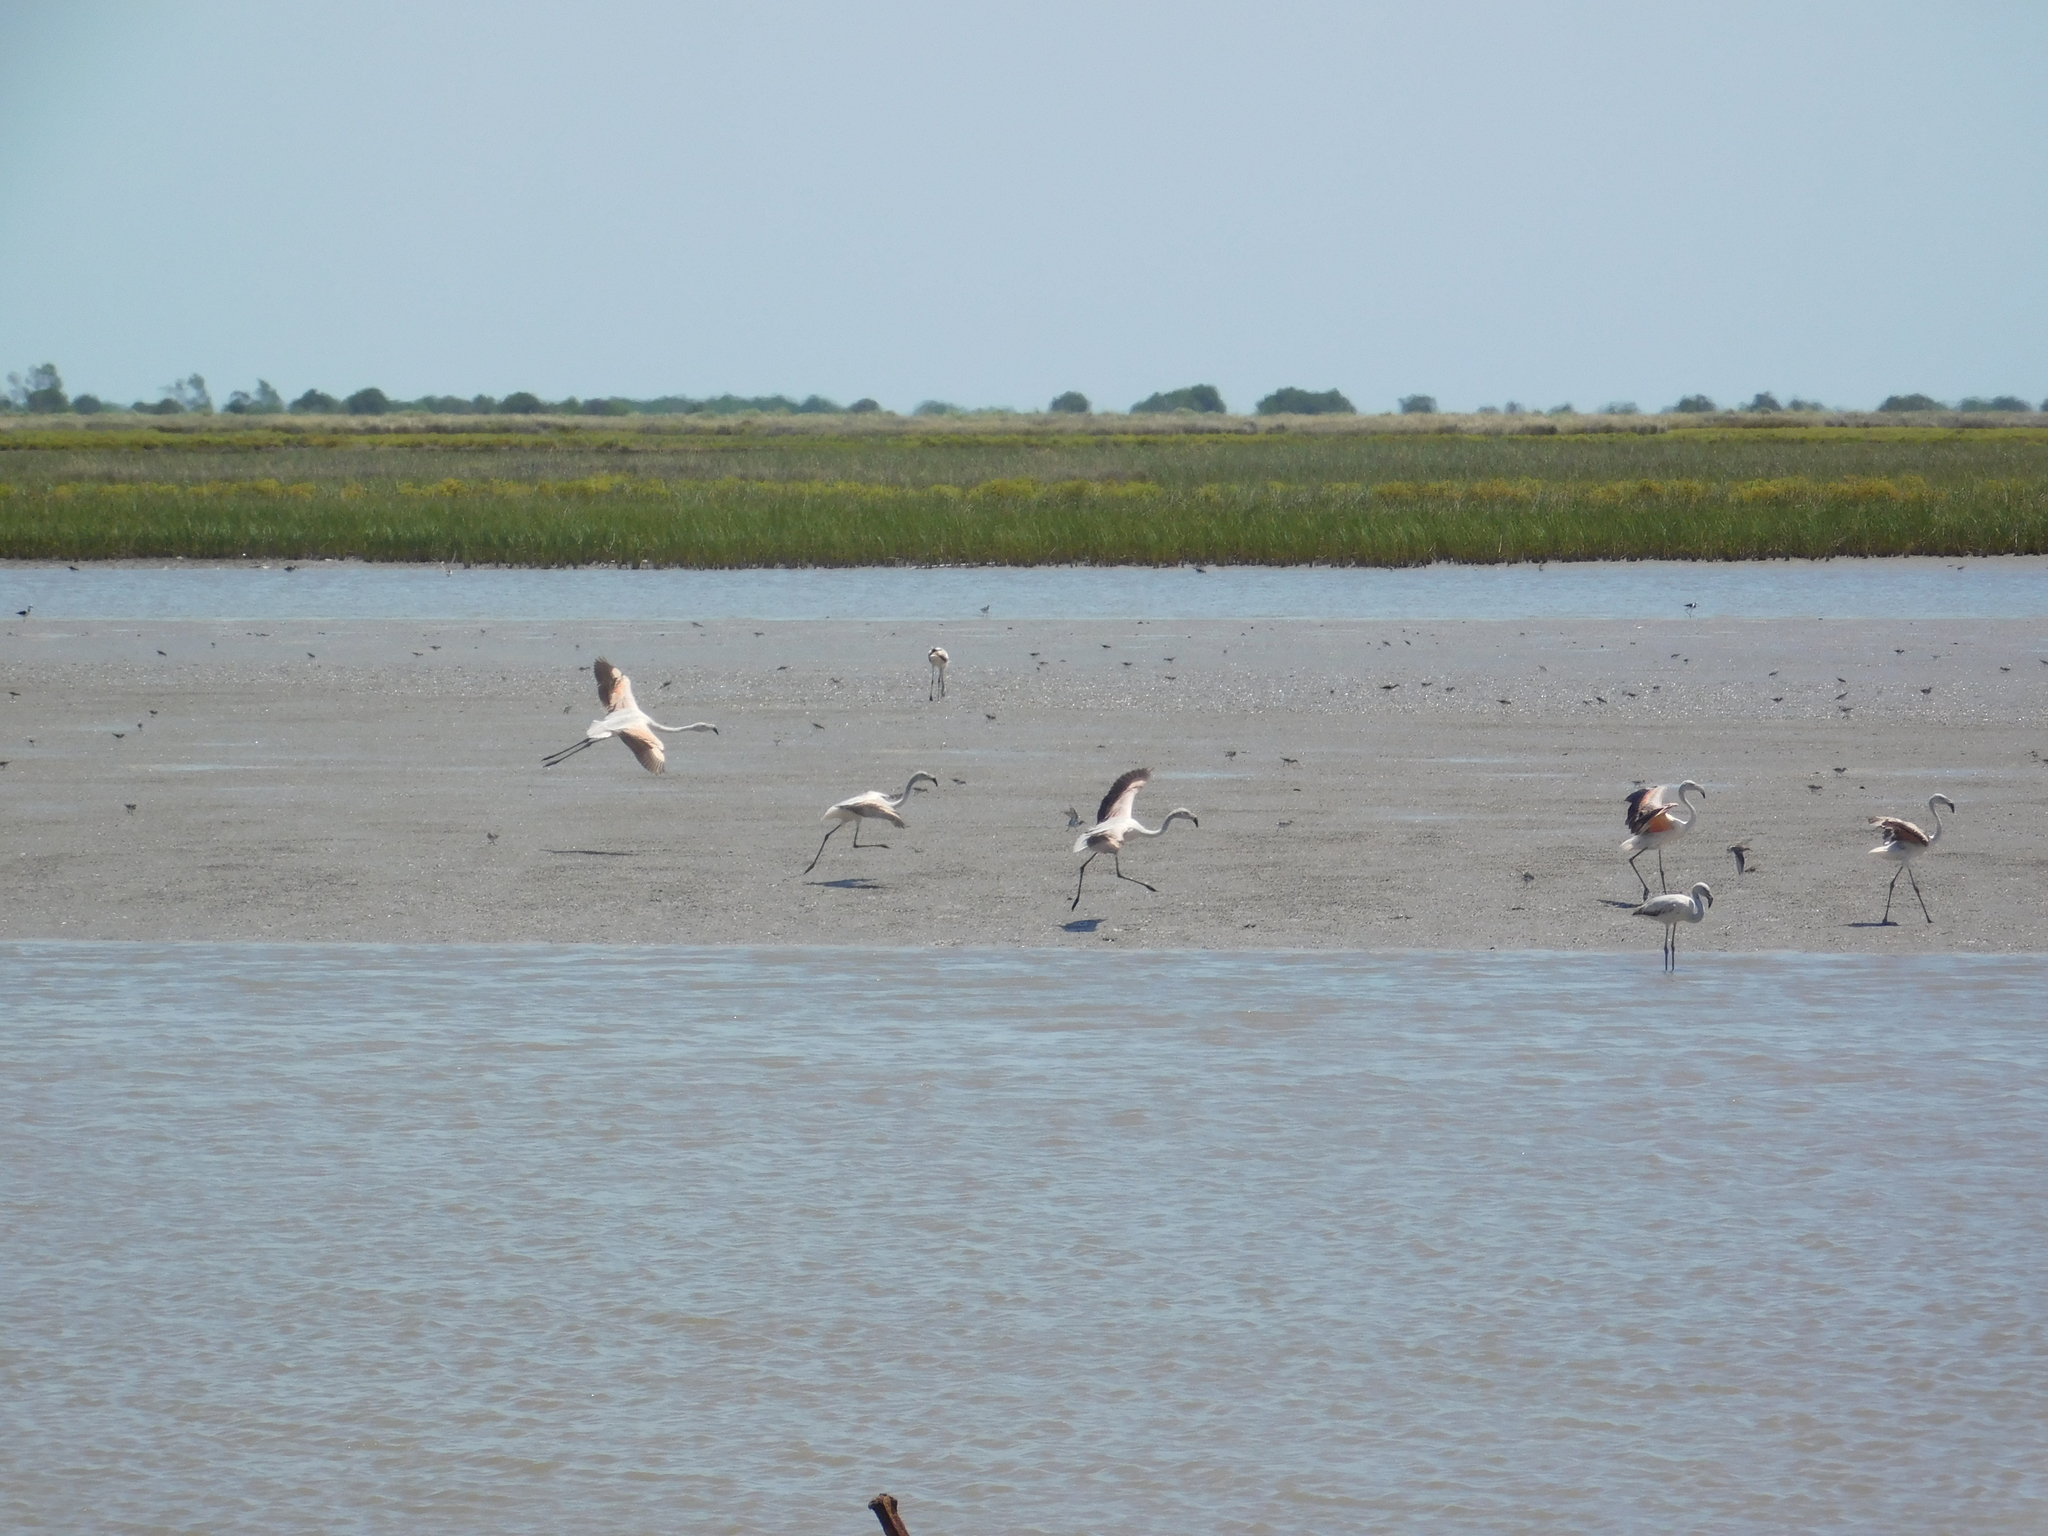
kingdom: Animalia
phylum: Chordata
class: Aves
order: Phoenicopteriformes
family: Phoenicopteridae
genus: Phoenicopterus
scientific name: Phoenicopterus chilensis
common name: Chilean flamingo
